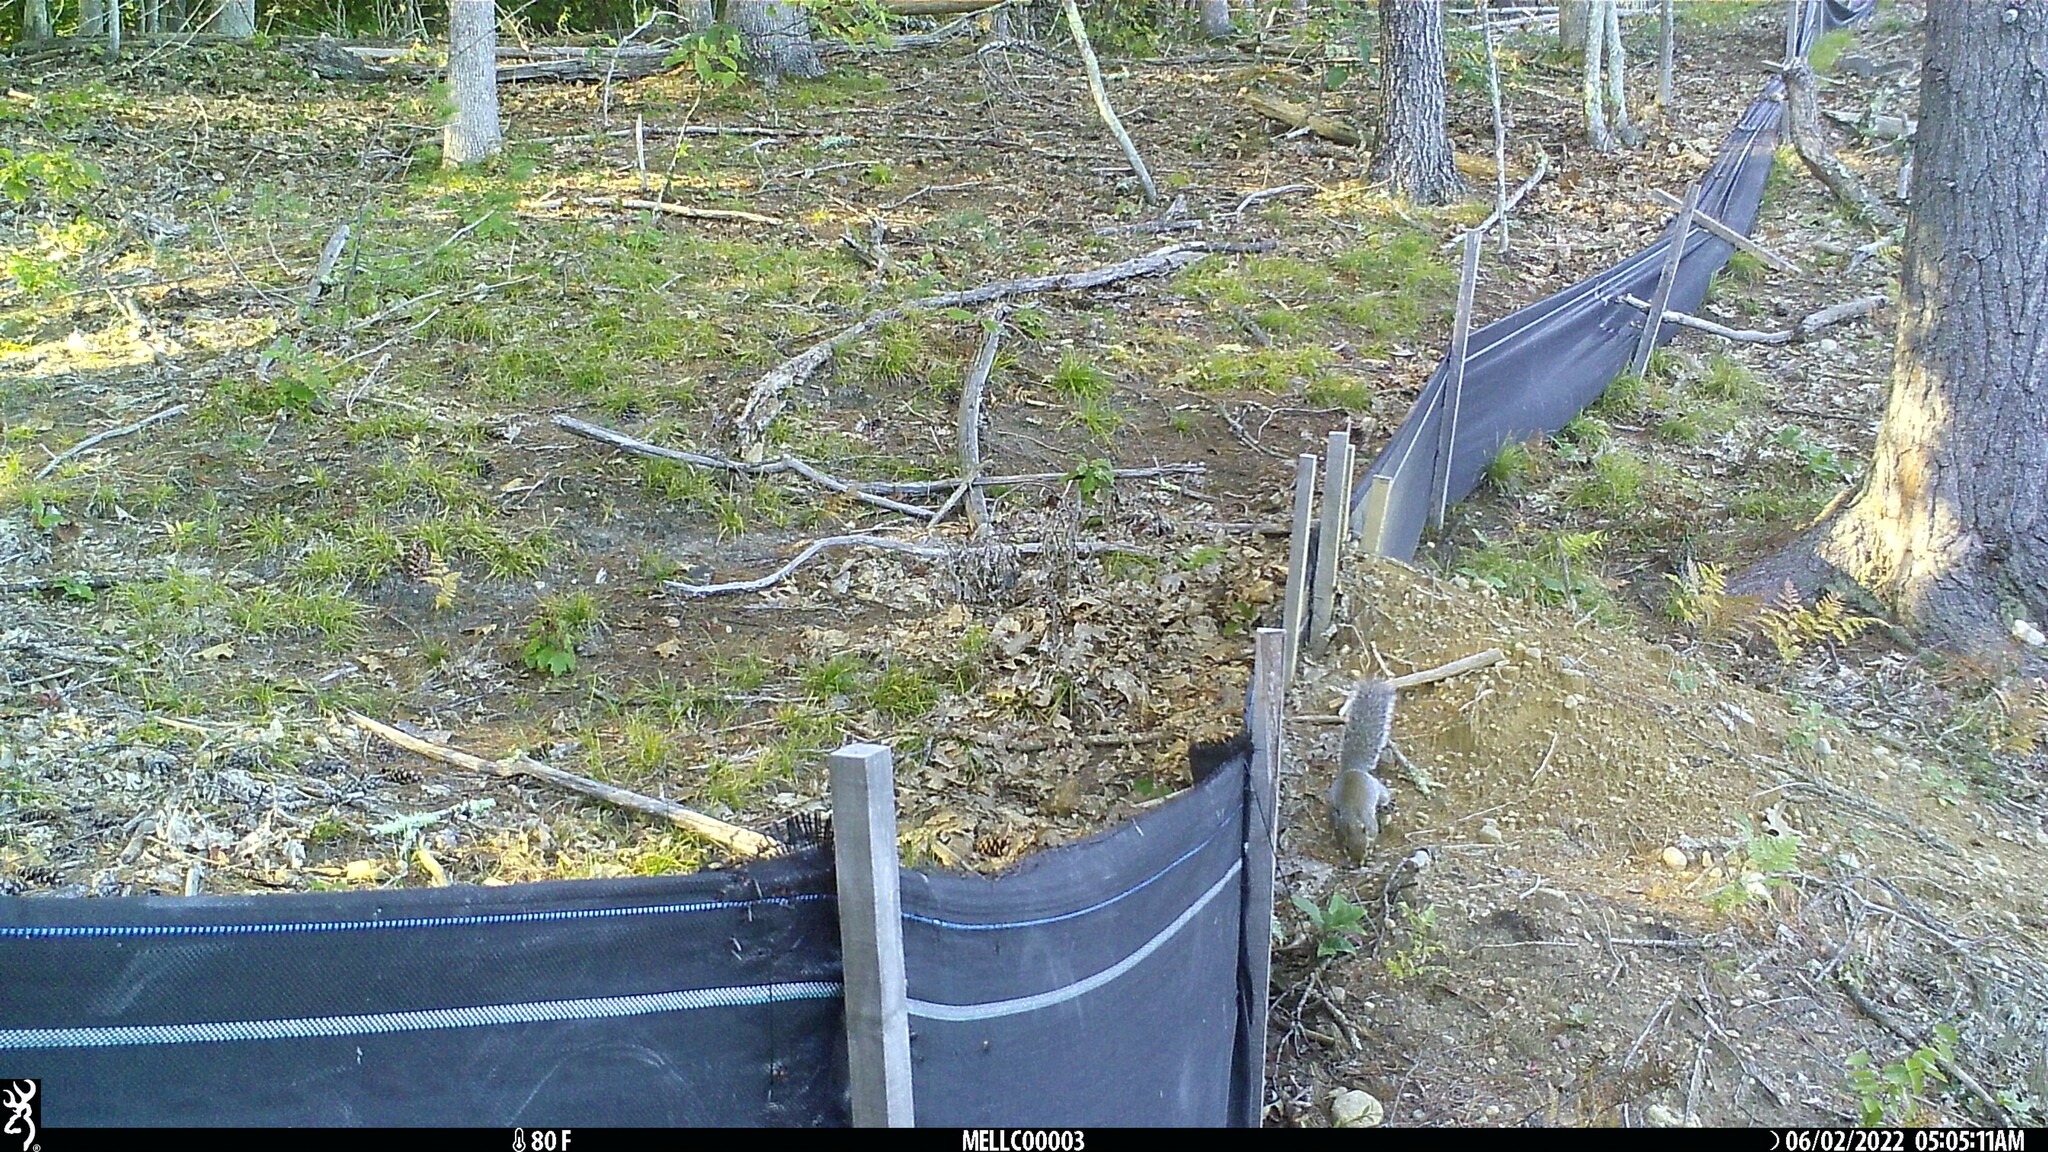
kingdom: Animalia
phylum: Chordata
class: Mammalia
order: Rodentia
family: Sciuridae
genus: Sciurus
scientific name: Sciurus carolinensis
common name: Eastern gray squirrel
